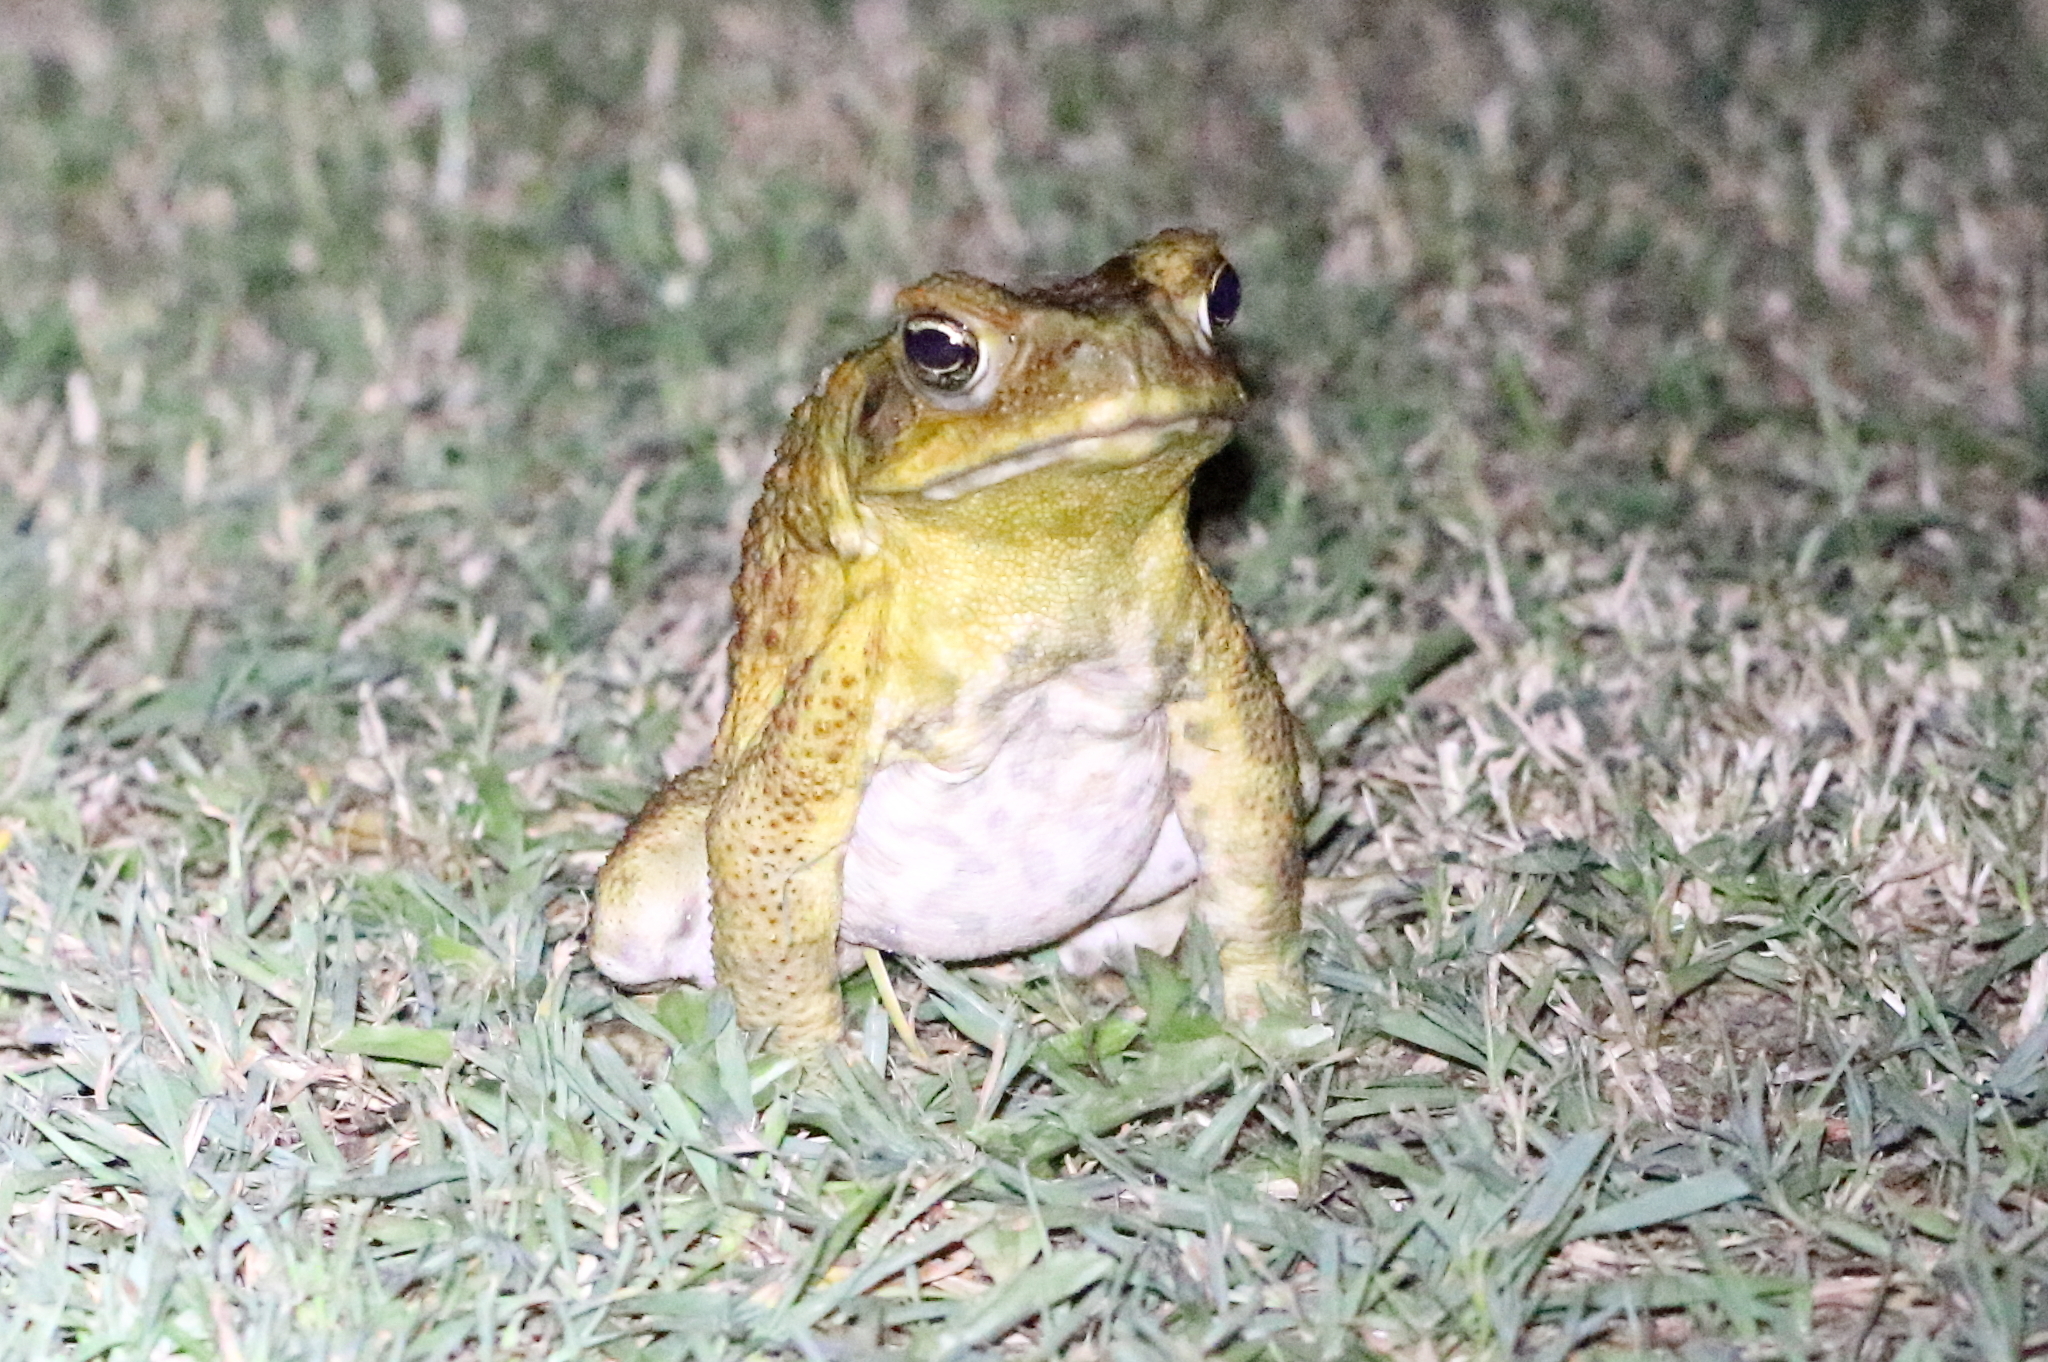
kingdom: Animalia
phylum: Chordata
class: Amphibia
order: Anura
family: Bufonidae
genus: Rhinella
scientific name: Rhinella marina
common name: Cane toad
